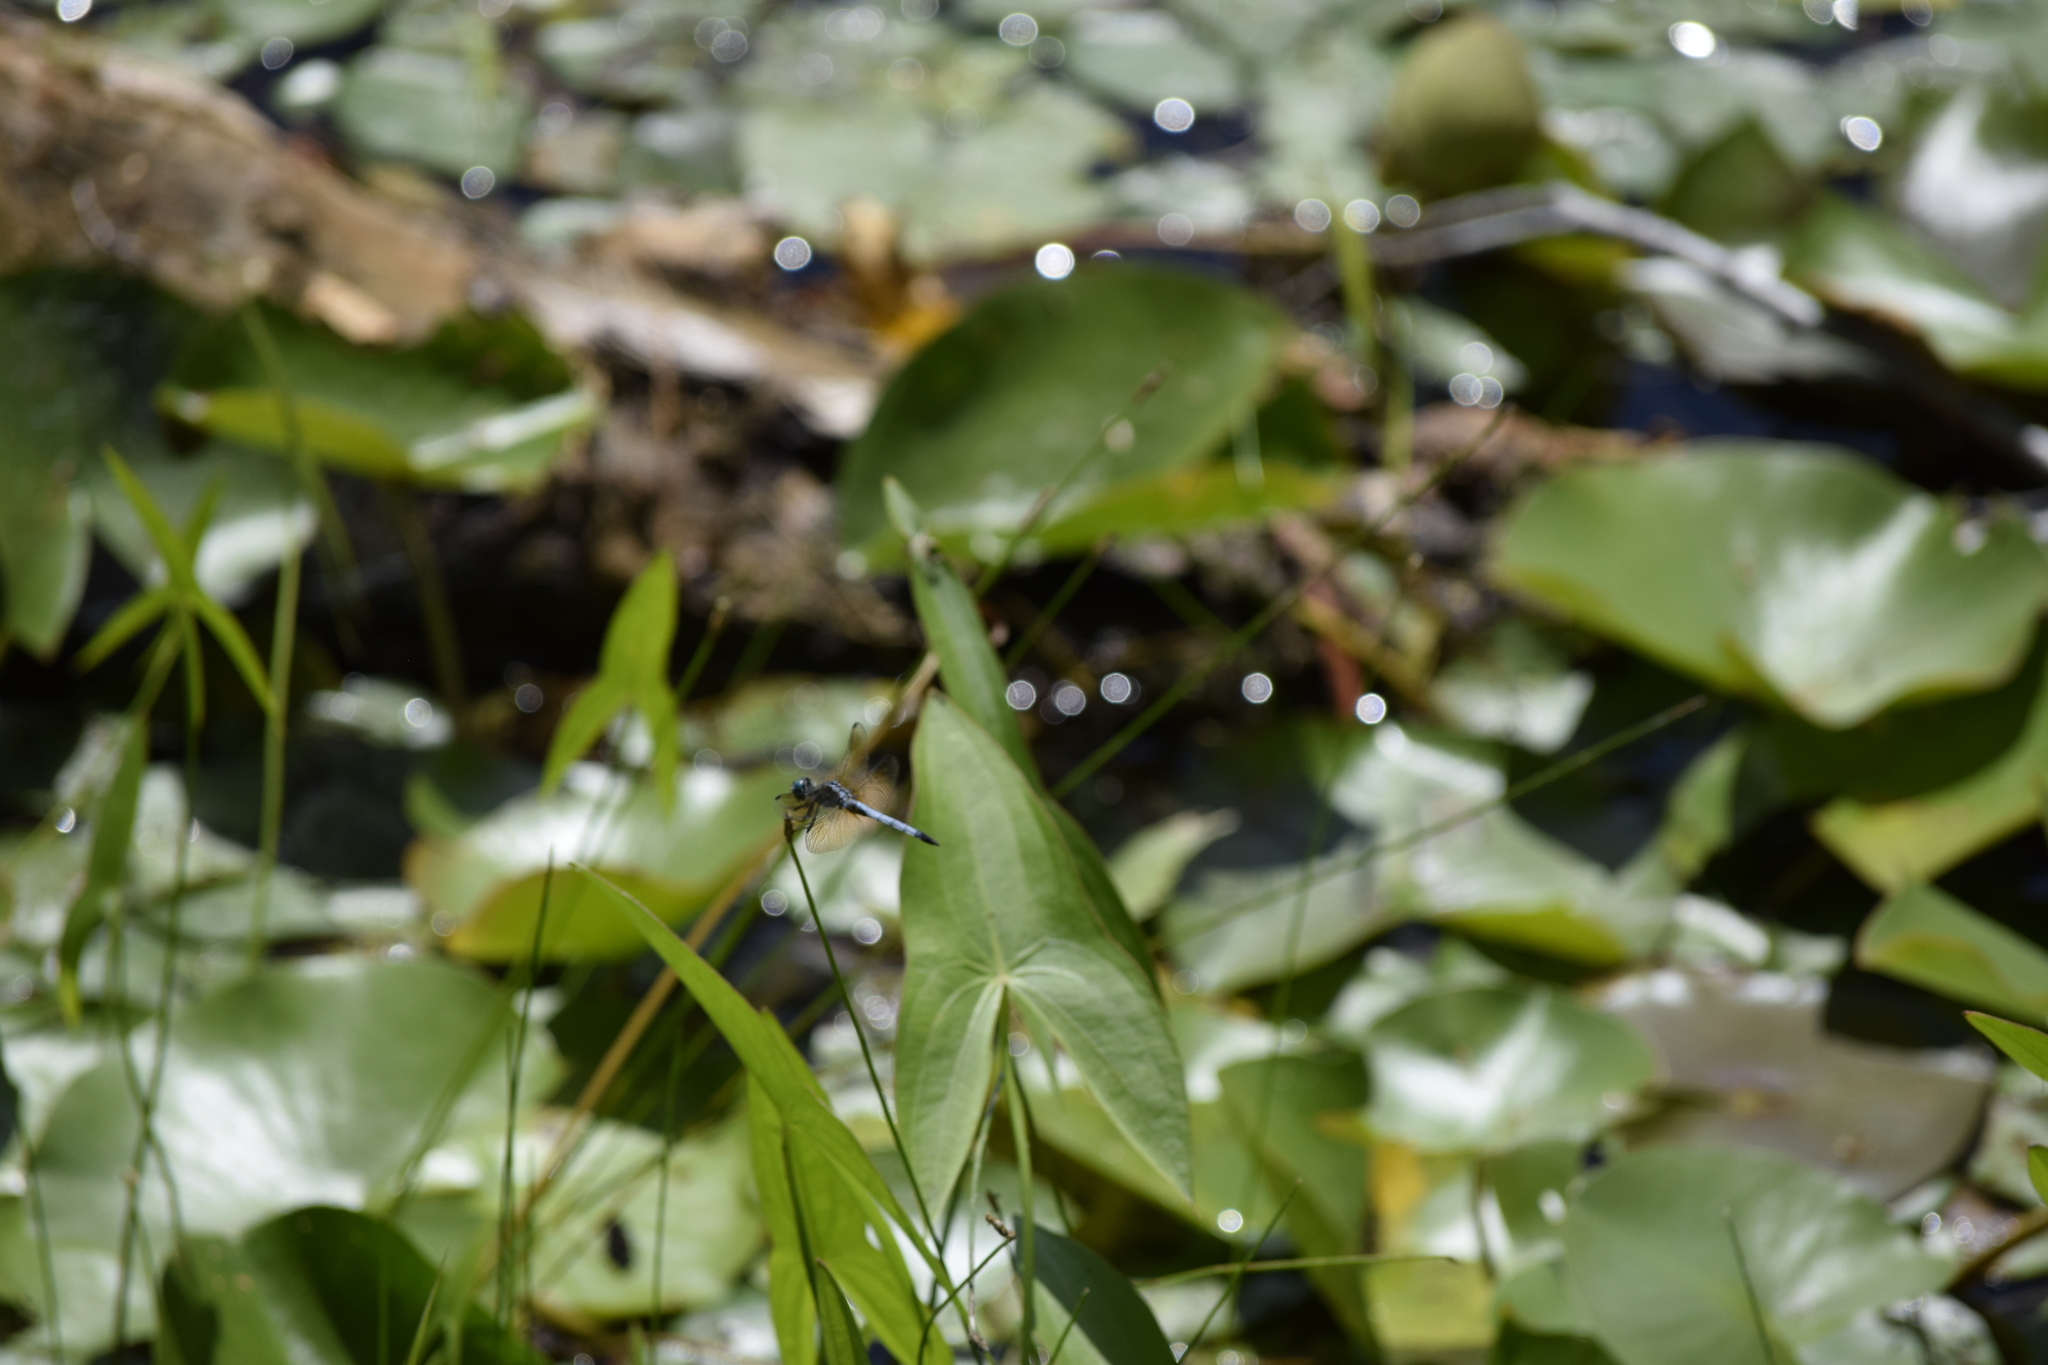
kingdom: Animalia
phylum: Arthropoda
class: Insecta
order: Odonata
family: Libellulidae
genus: Pachydiplax
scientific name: Pachydiplax longipennis
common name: Blue dasher
